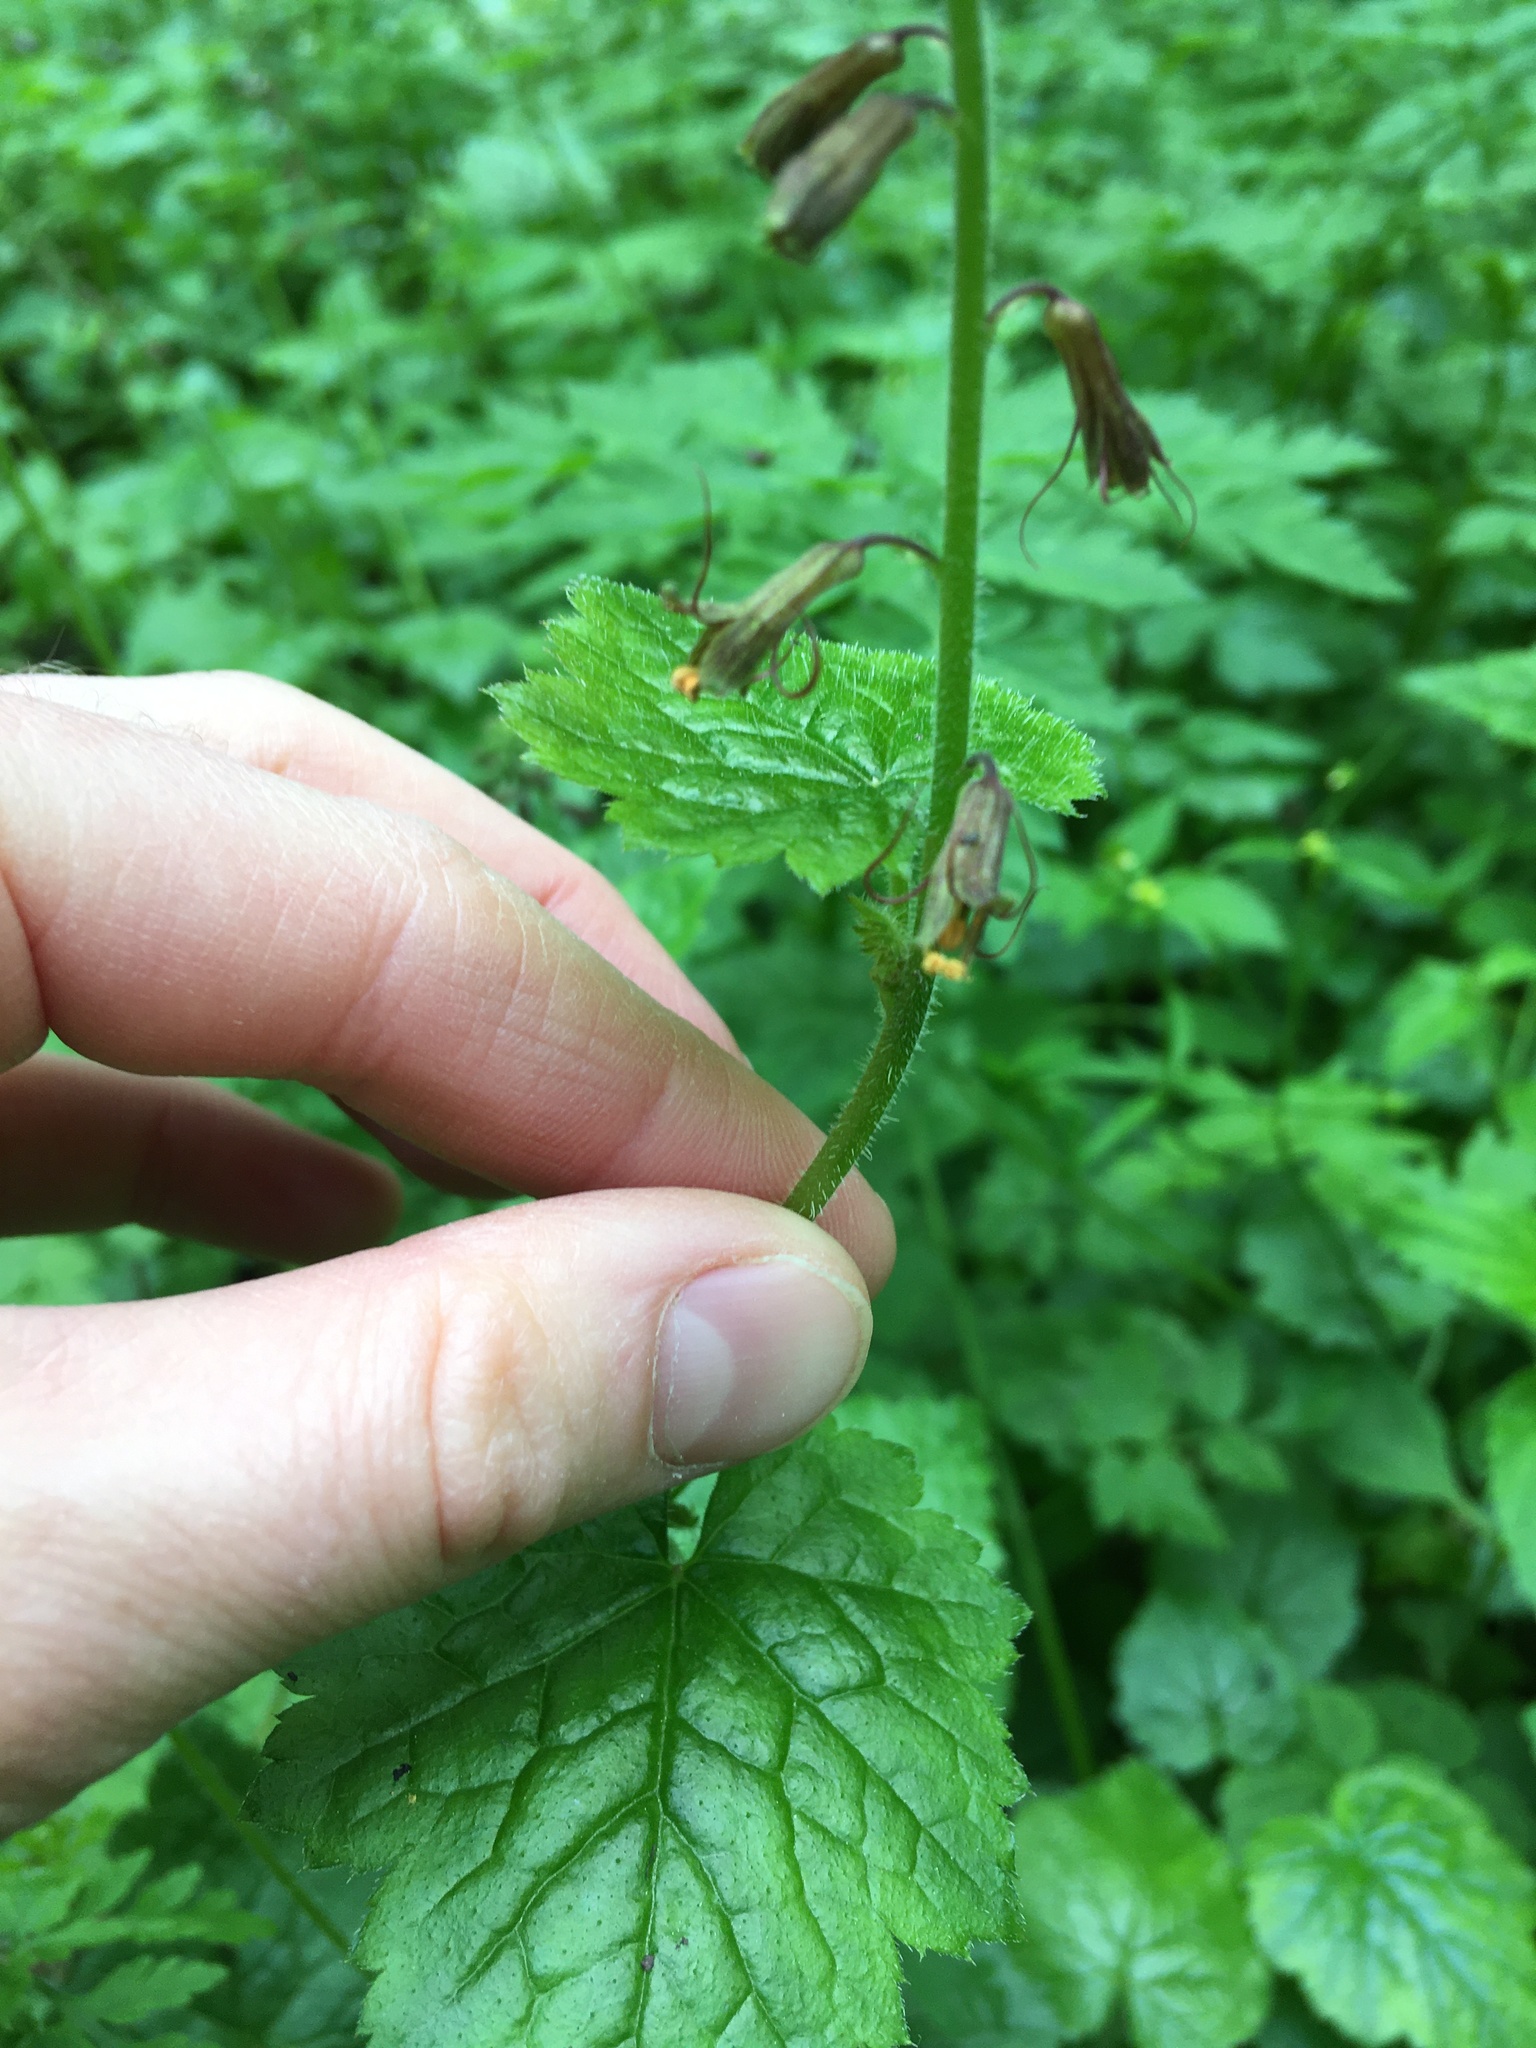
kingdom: Plantae
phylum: Tracheophyta
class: Magnoliopsida
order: Saxifragales
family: Saxifragaceae
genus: Tolmiea
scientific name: Tolmiea menziesii
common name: Pick-a-back-plant
